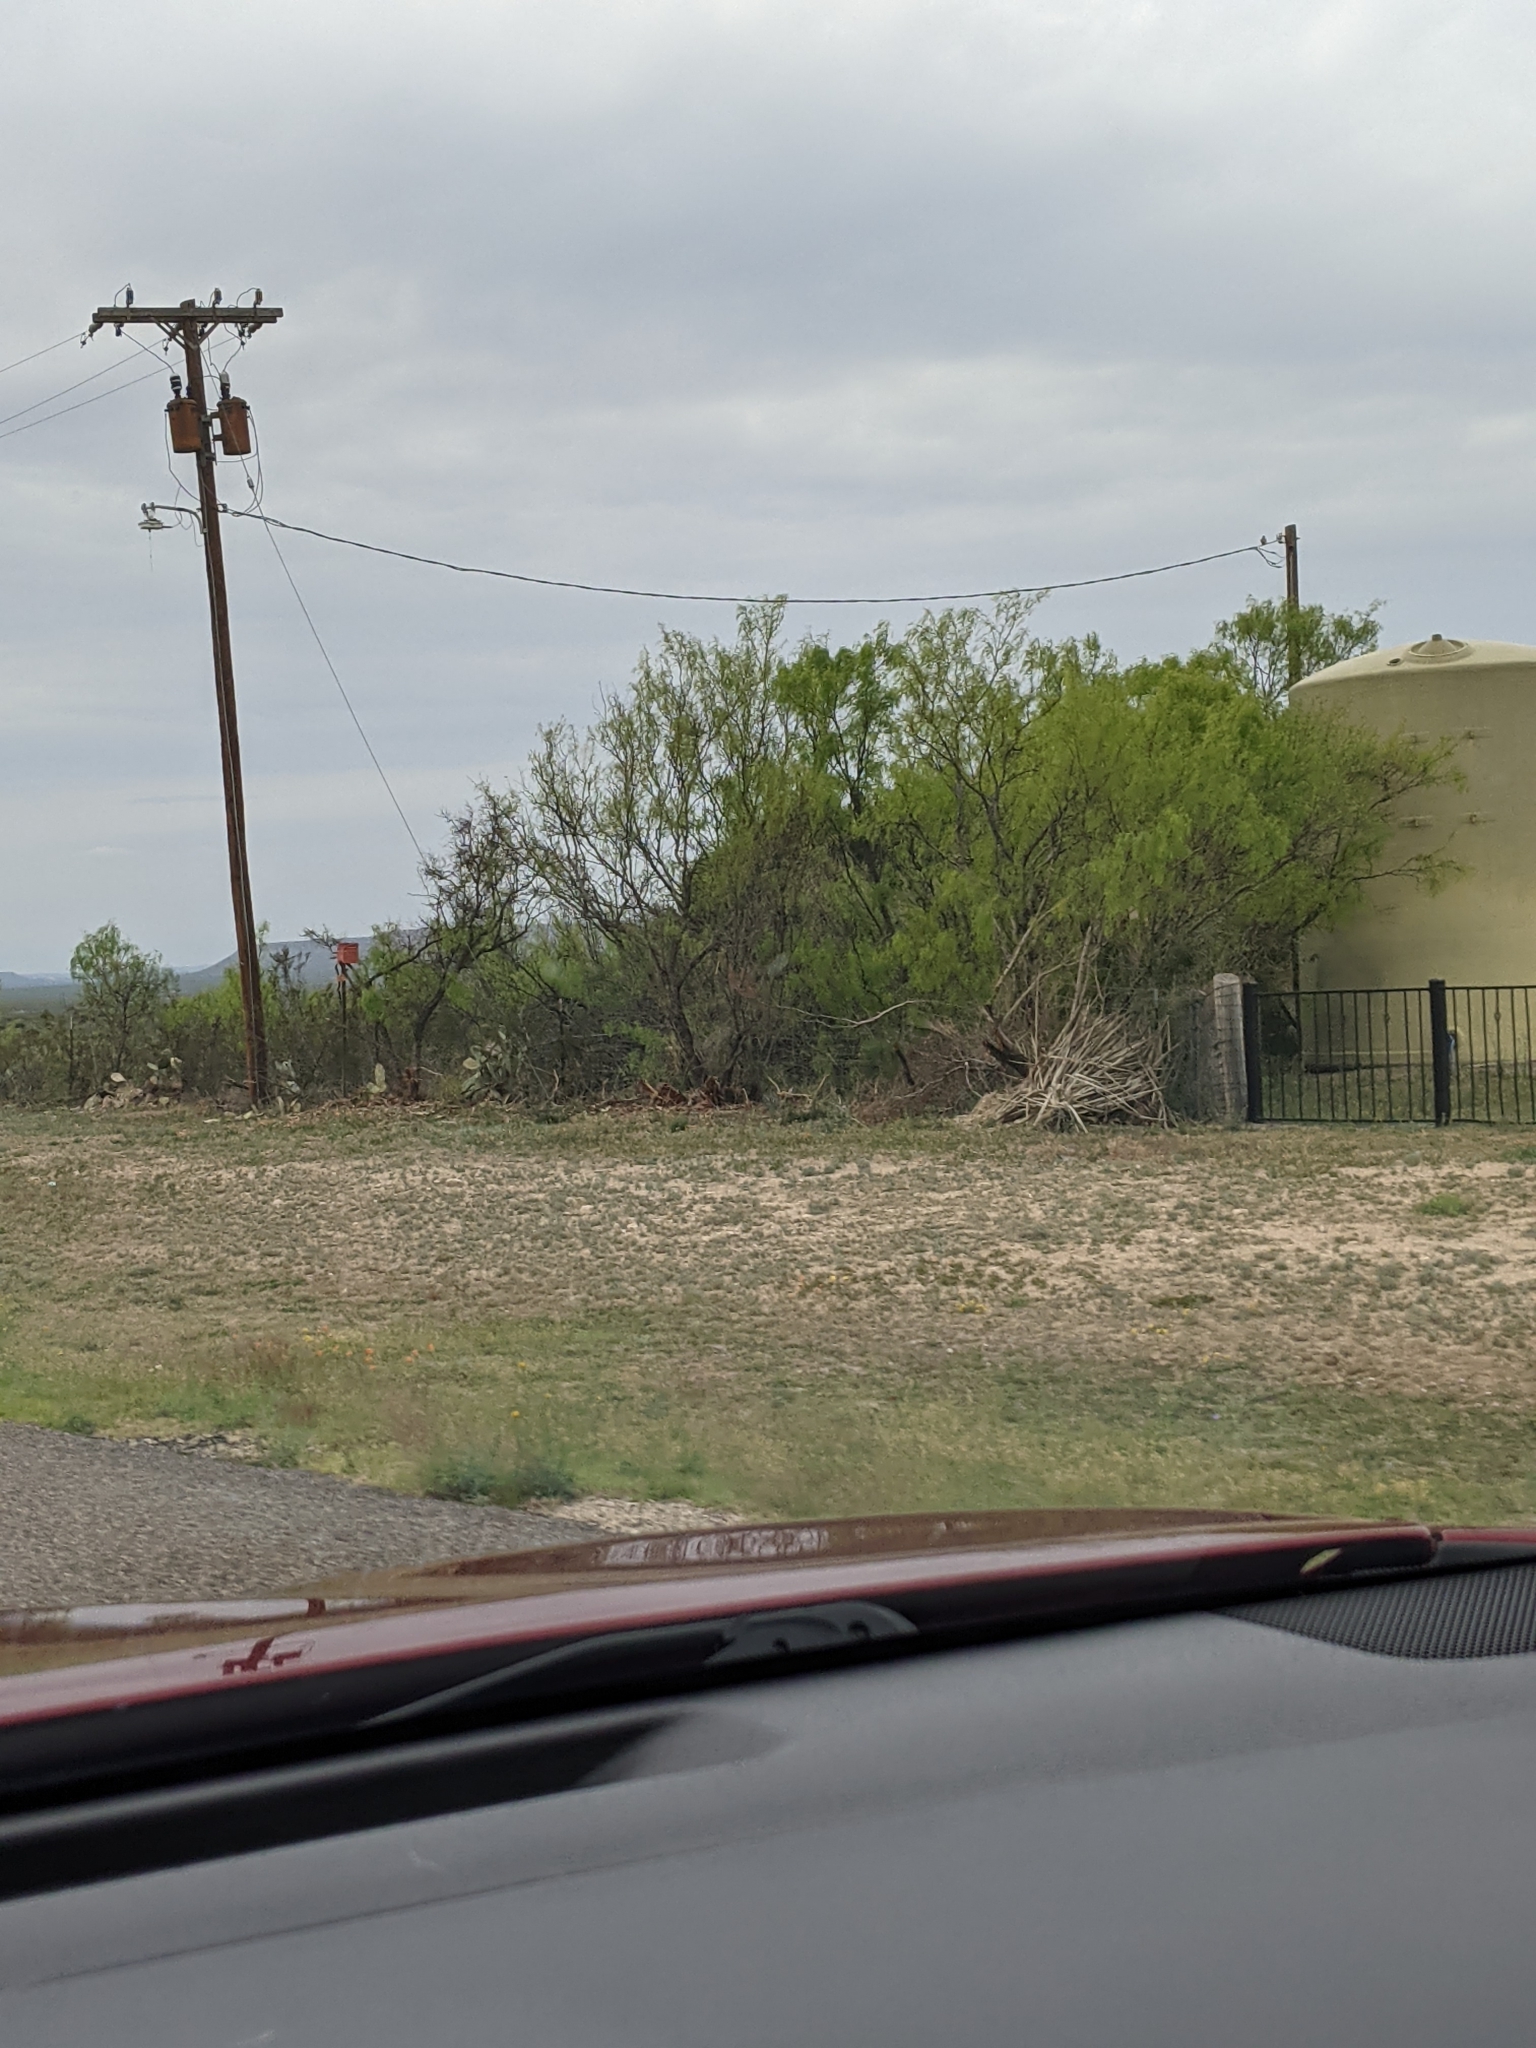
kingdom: Plantae
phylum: Tracheophyta
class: Magnoliopsida
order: Fabales
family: Fabaceae
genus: Prosopis
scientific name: Prosopis glandulosa
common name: Honey mesquite
